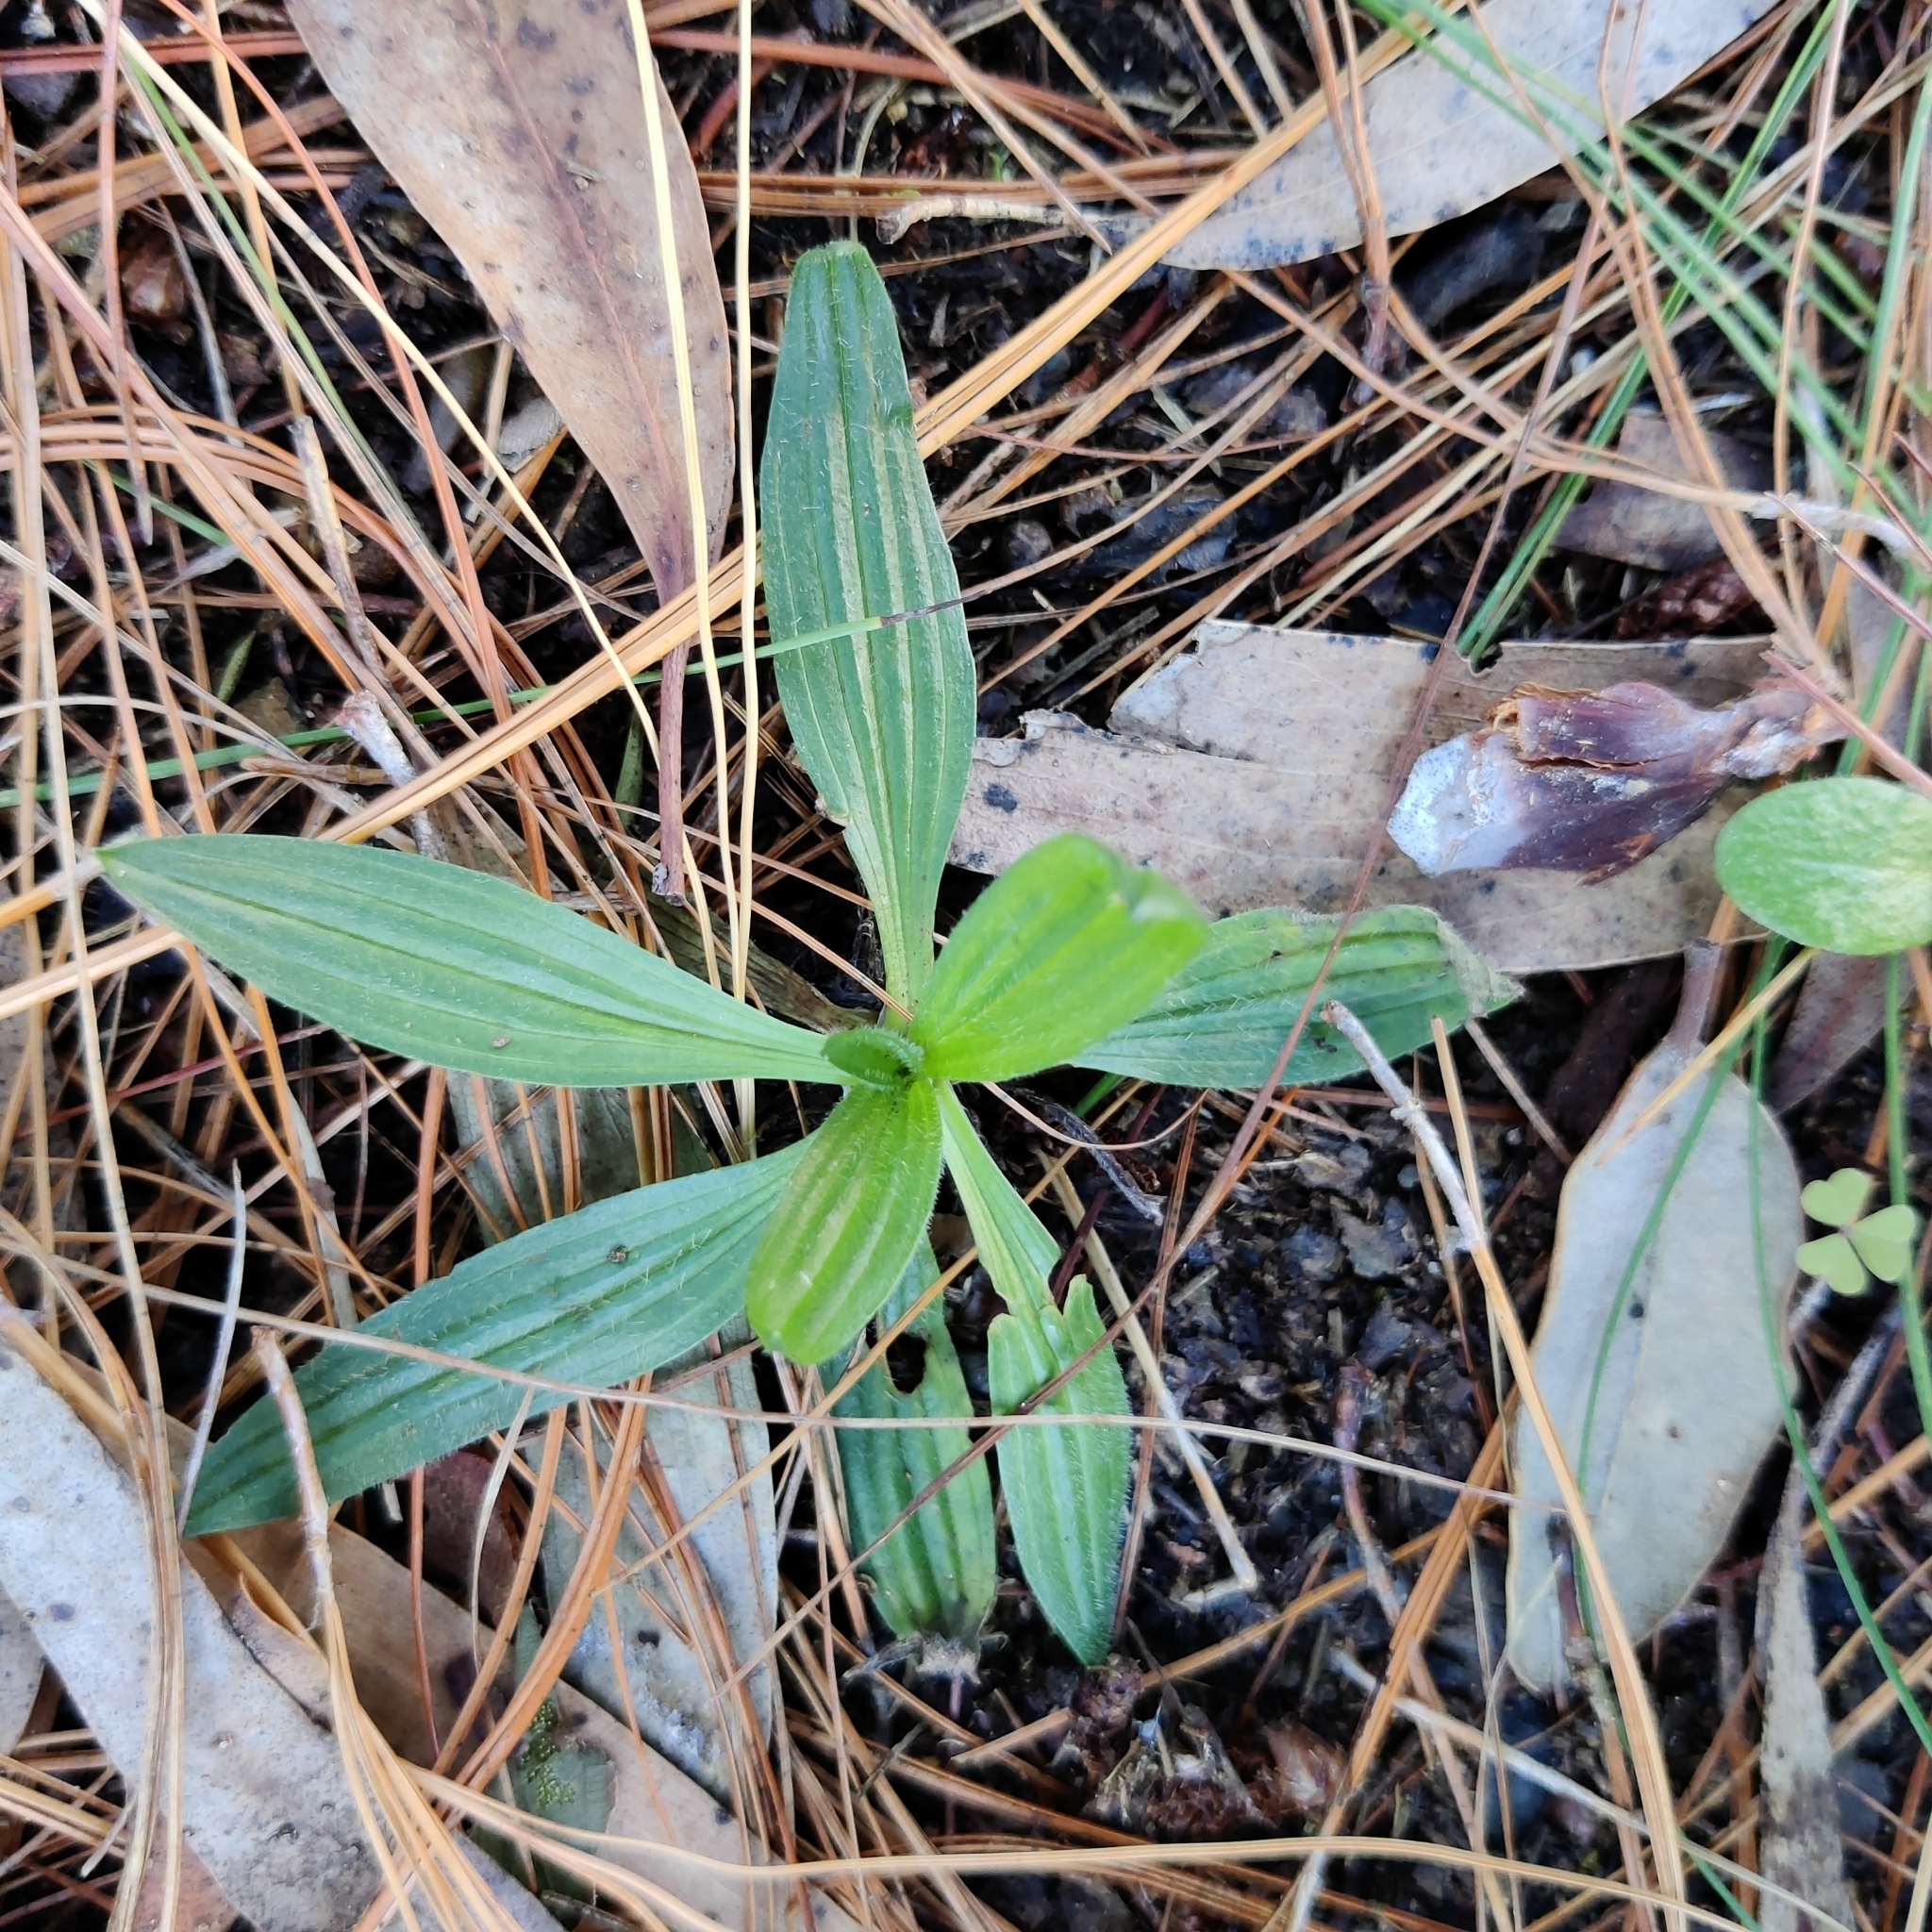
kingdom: Plantae
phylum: Tracheophyta
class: Magnoliopsida
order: Lamiales
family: Plantaginaceae
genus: Plantago
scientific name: Plantago lanceolata
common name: Ribwort plantain
